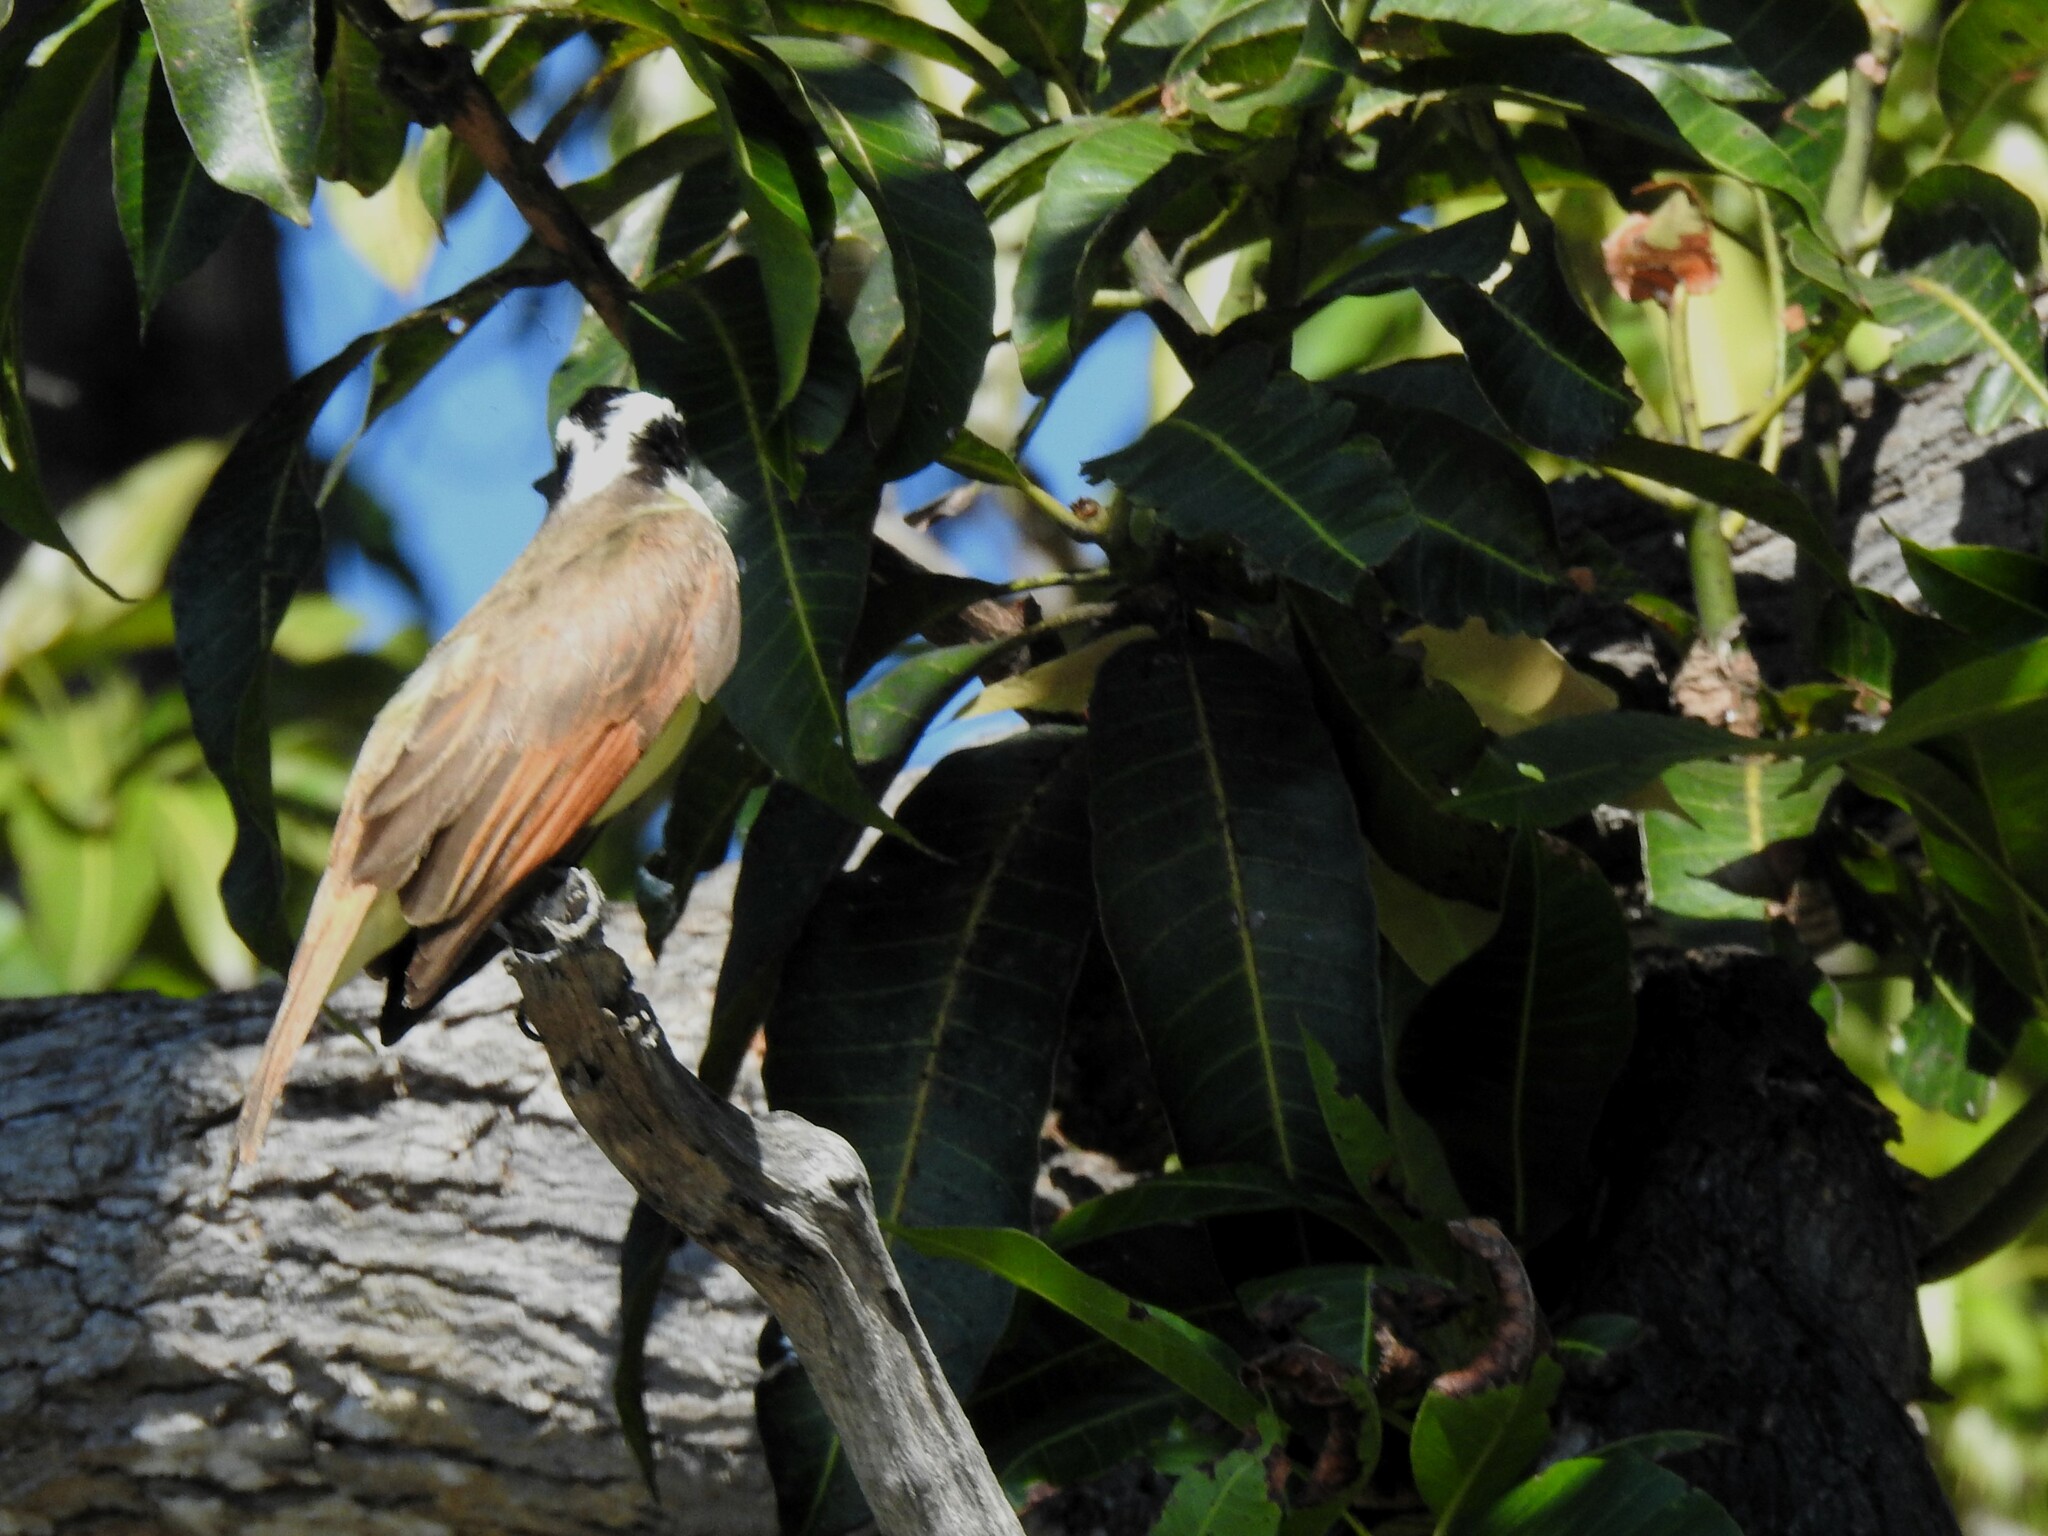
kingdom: Animalia
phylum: Chordata
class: Aves
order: Passeriformes
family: Tyrannidae
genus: Pitangus
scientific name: Pitangus sulphuratus
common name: Great kiskadee
